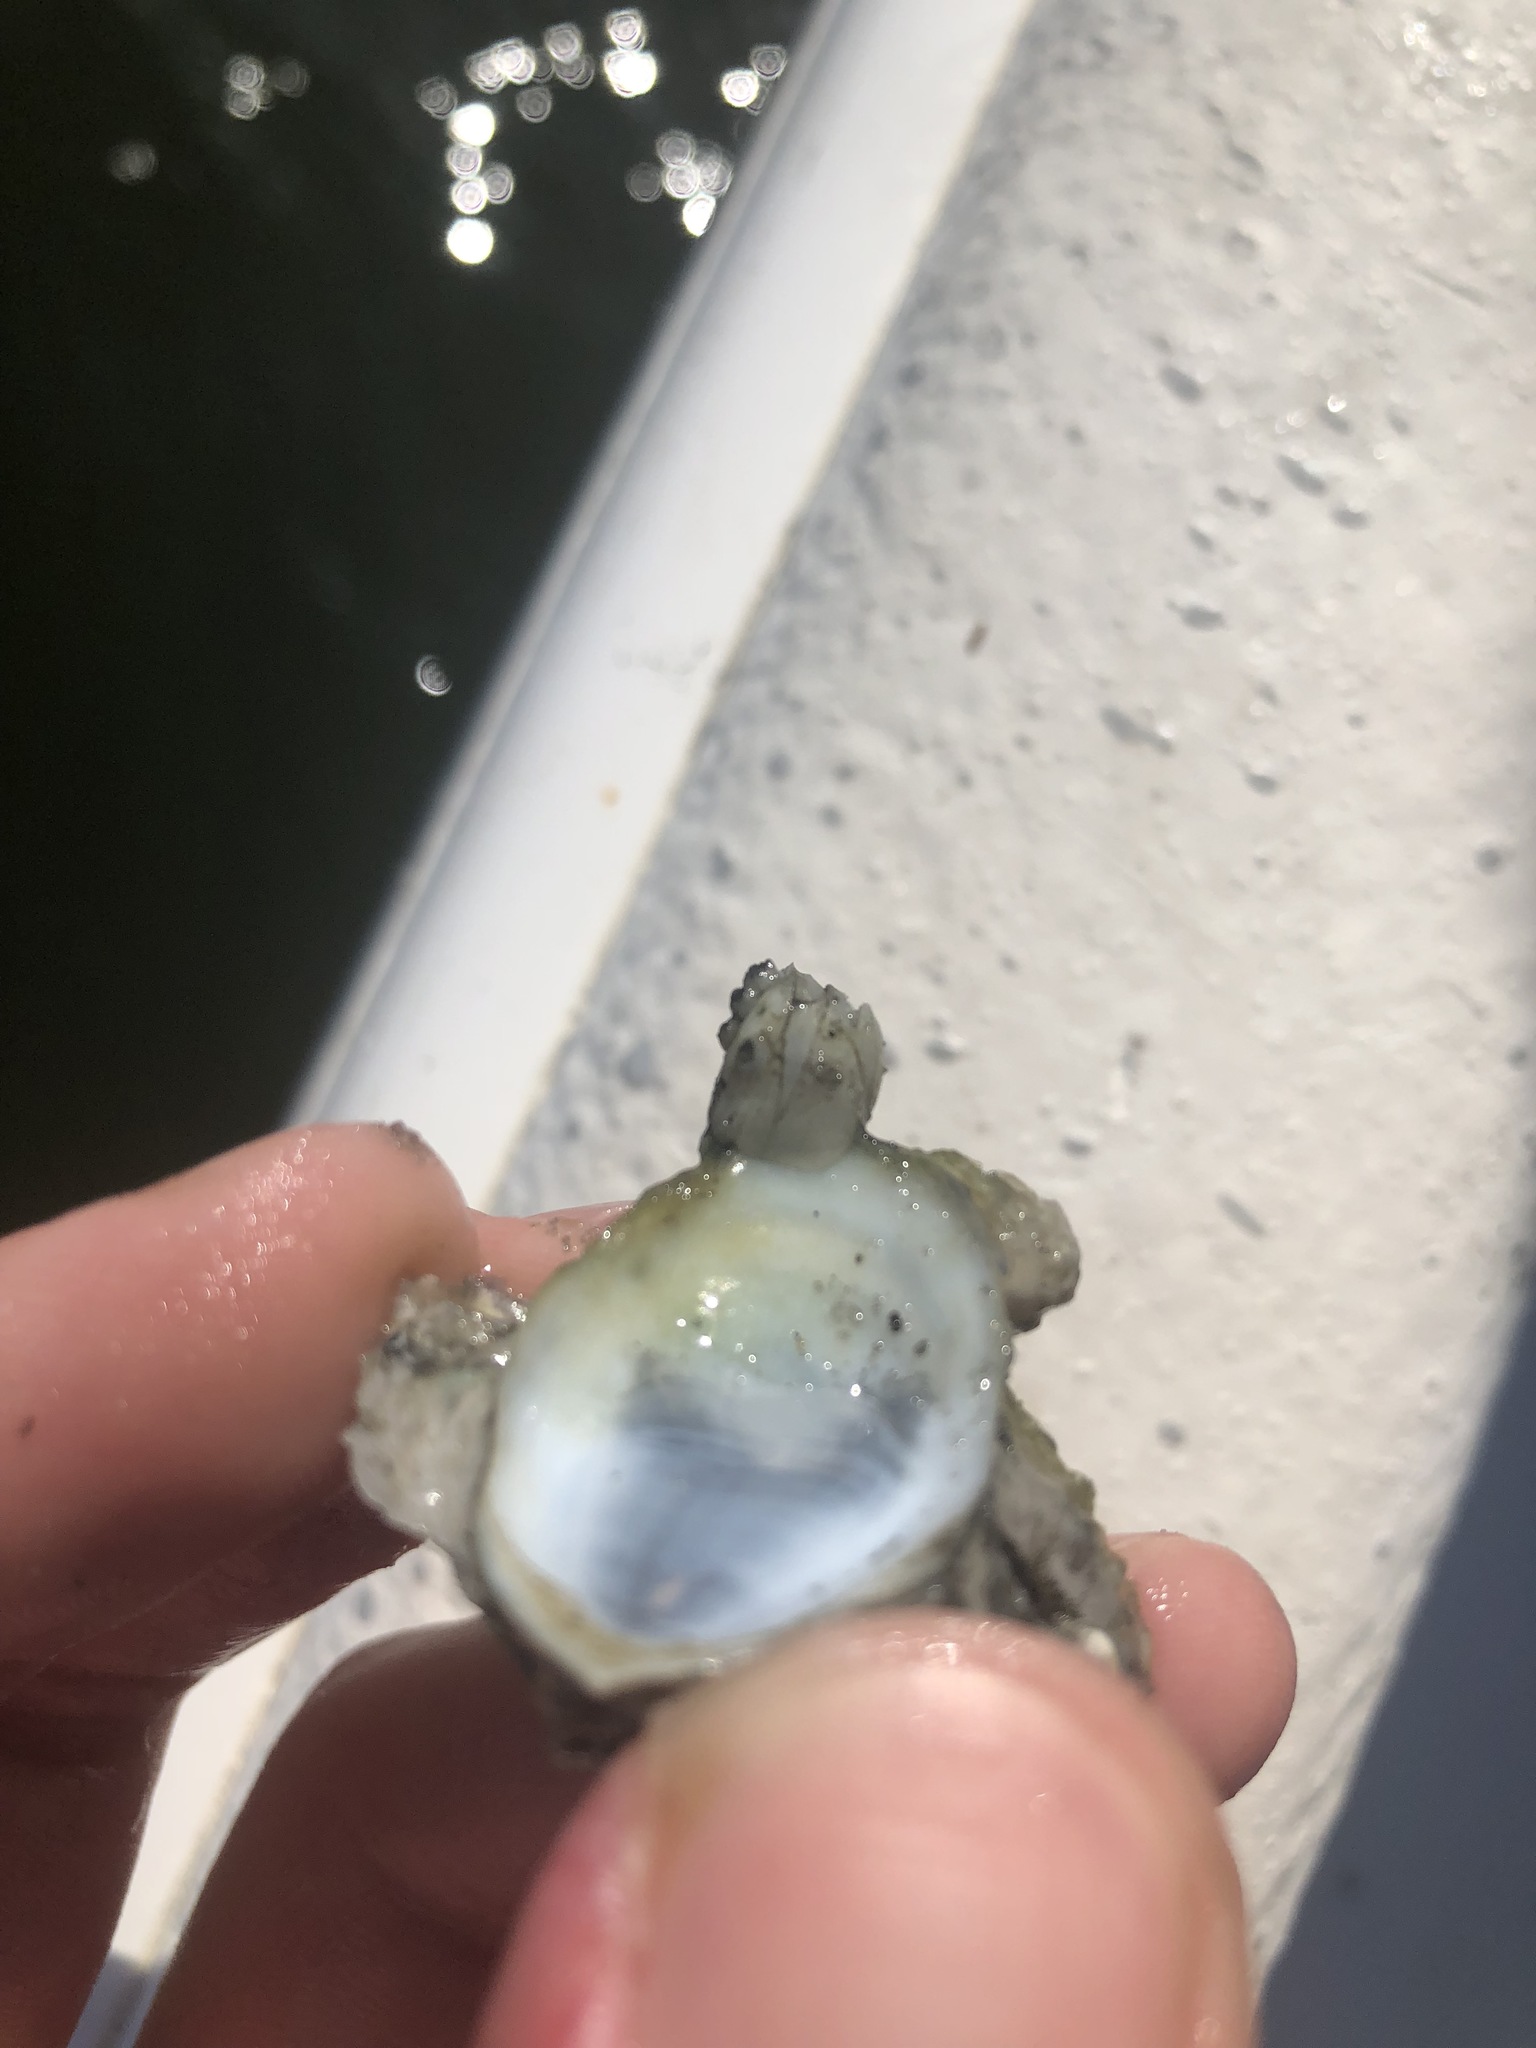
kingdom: Animalia
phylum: Arthropoda
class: Maxillopoda
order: Sessilia
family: Balanidae
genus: Amphibalanus
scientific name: Amphibalanus eburneus
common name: Ivory barnacle
